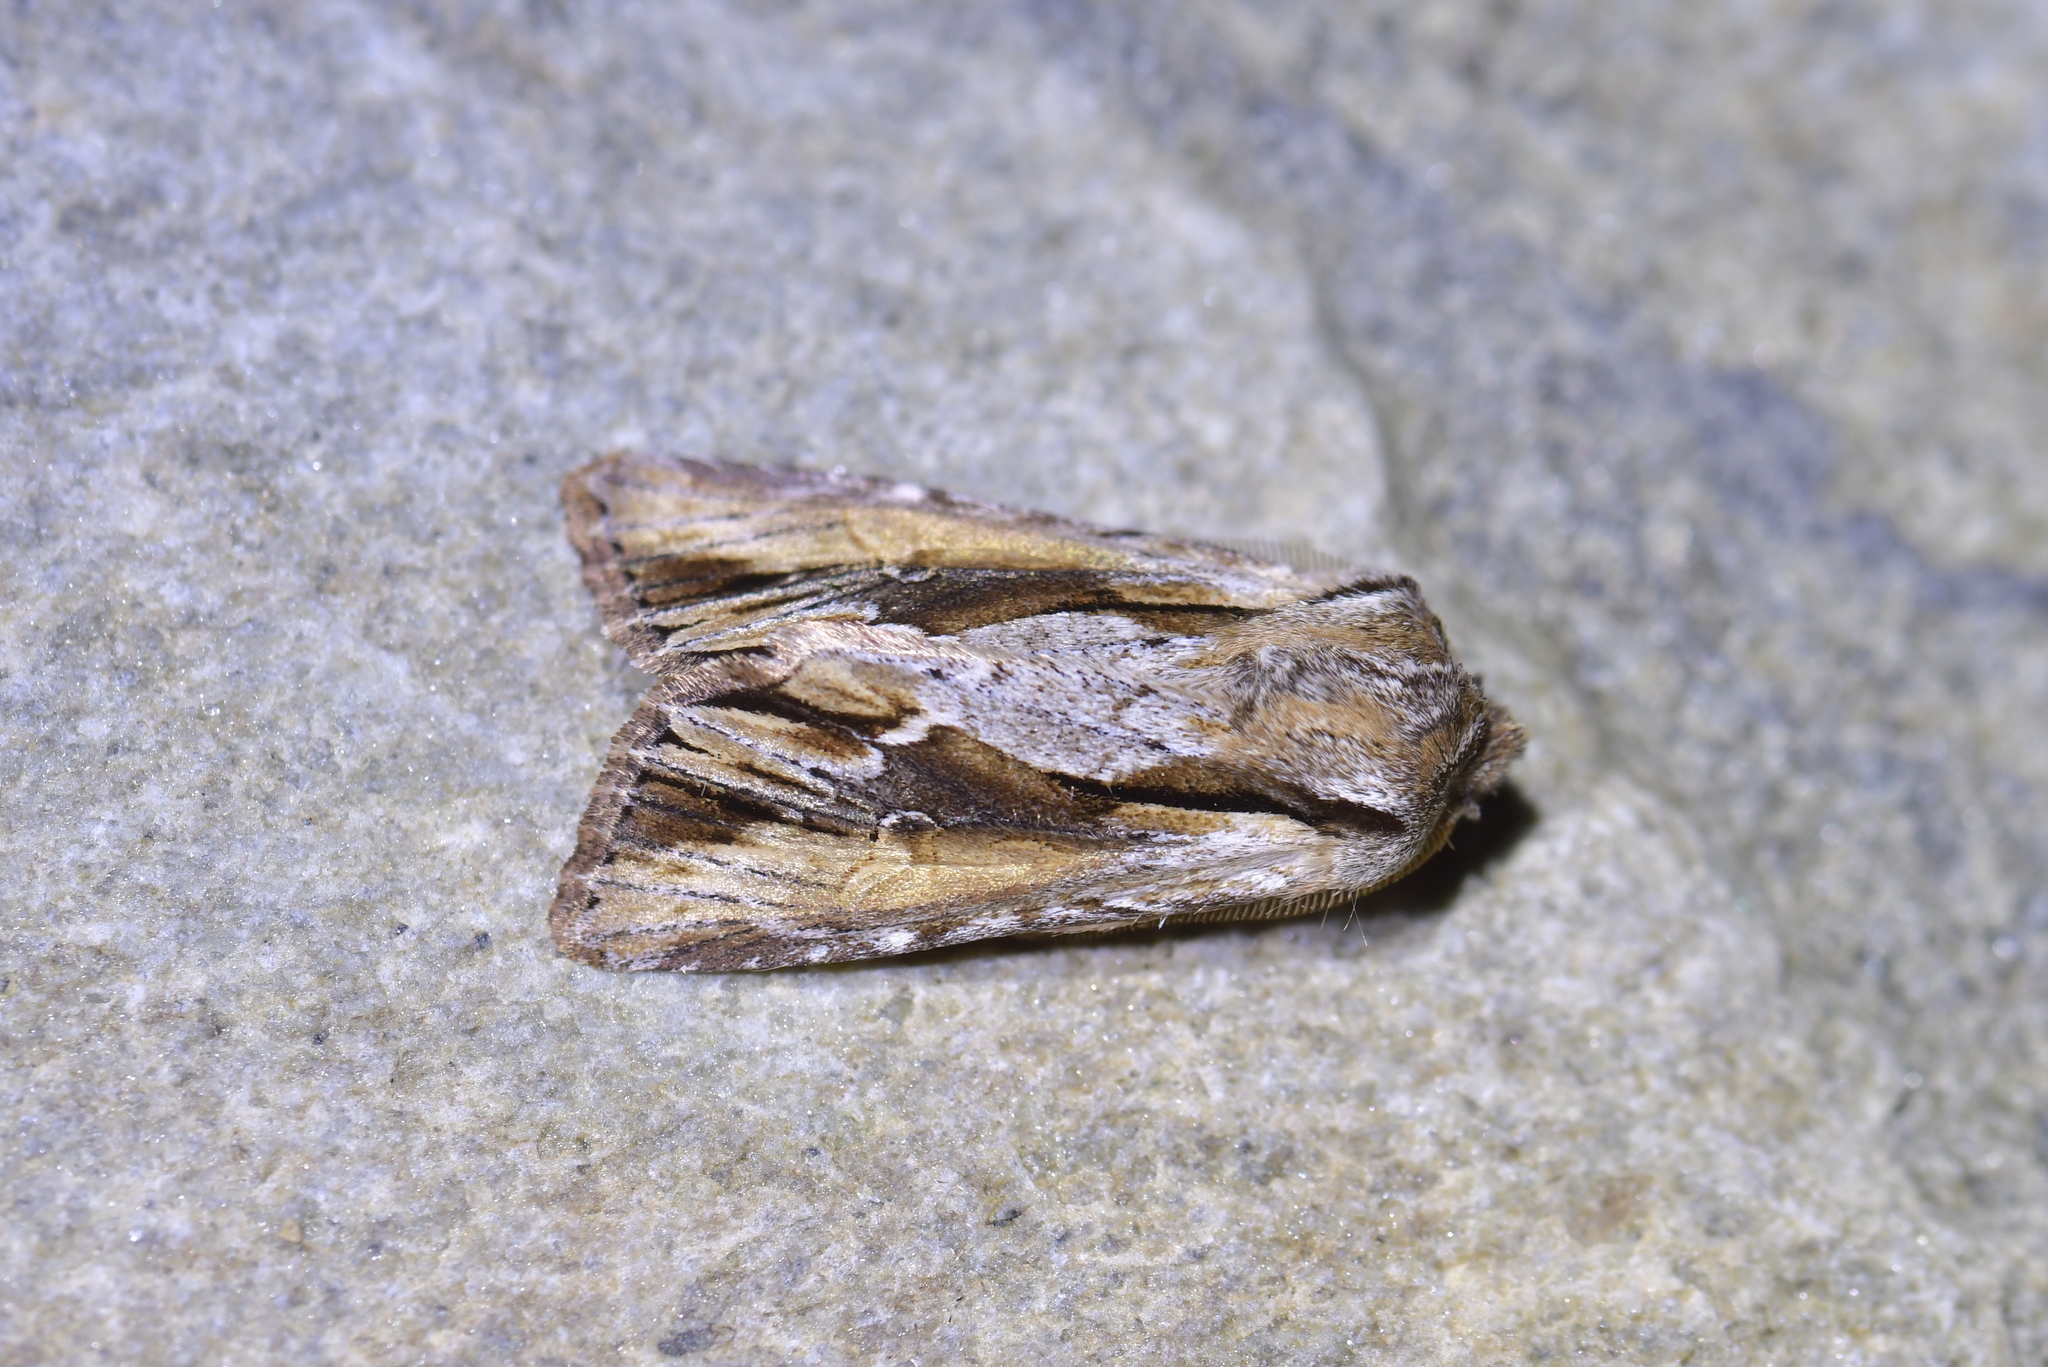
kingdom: Animalia
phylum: Arthropoda
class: Insecta
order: Lepidoptera
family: Noctuidae
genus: Ichneutica
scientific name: Ichneutica
